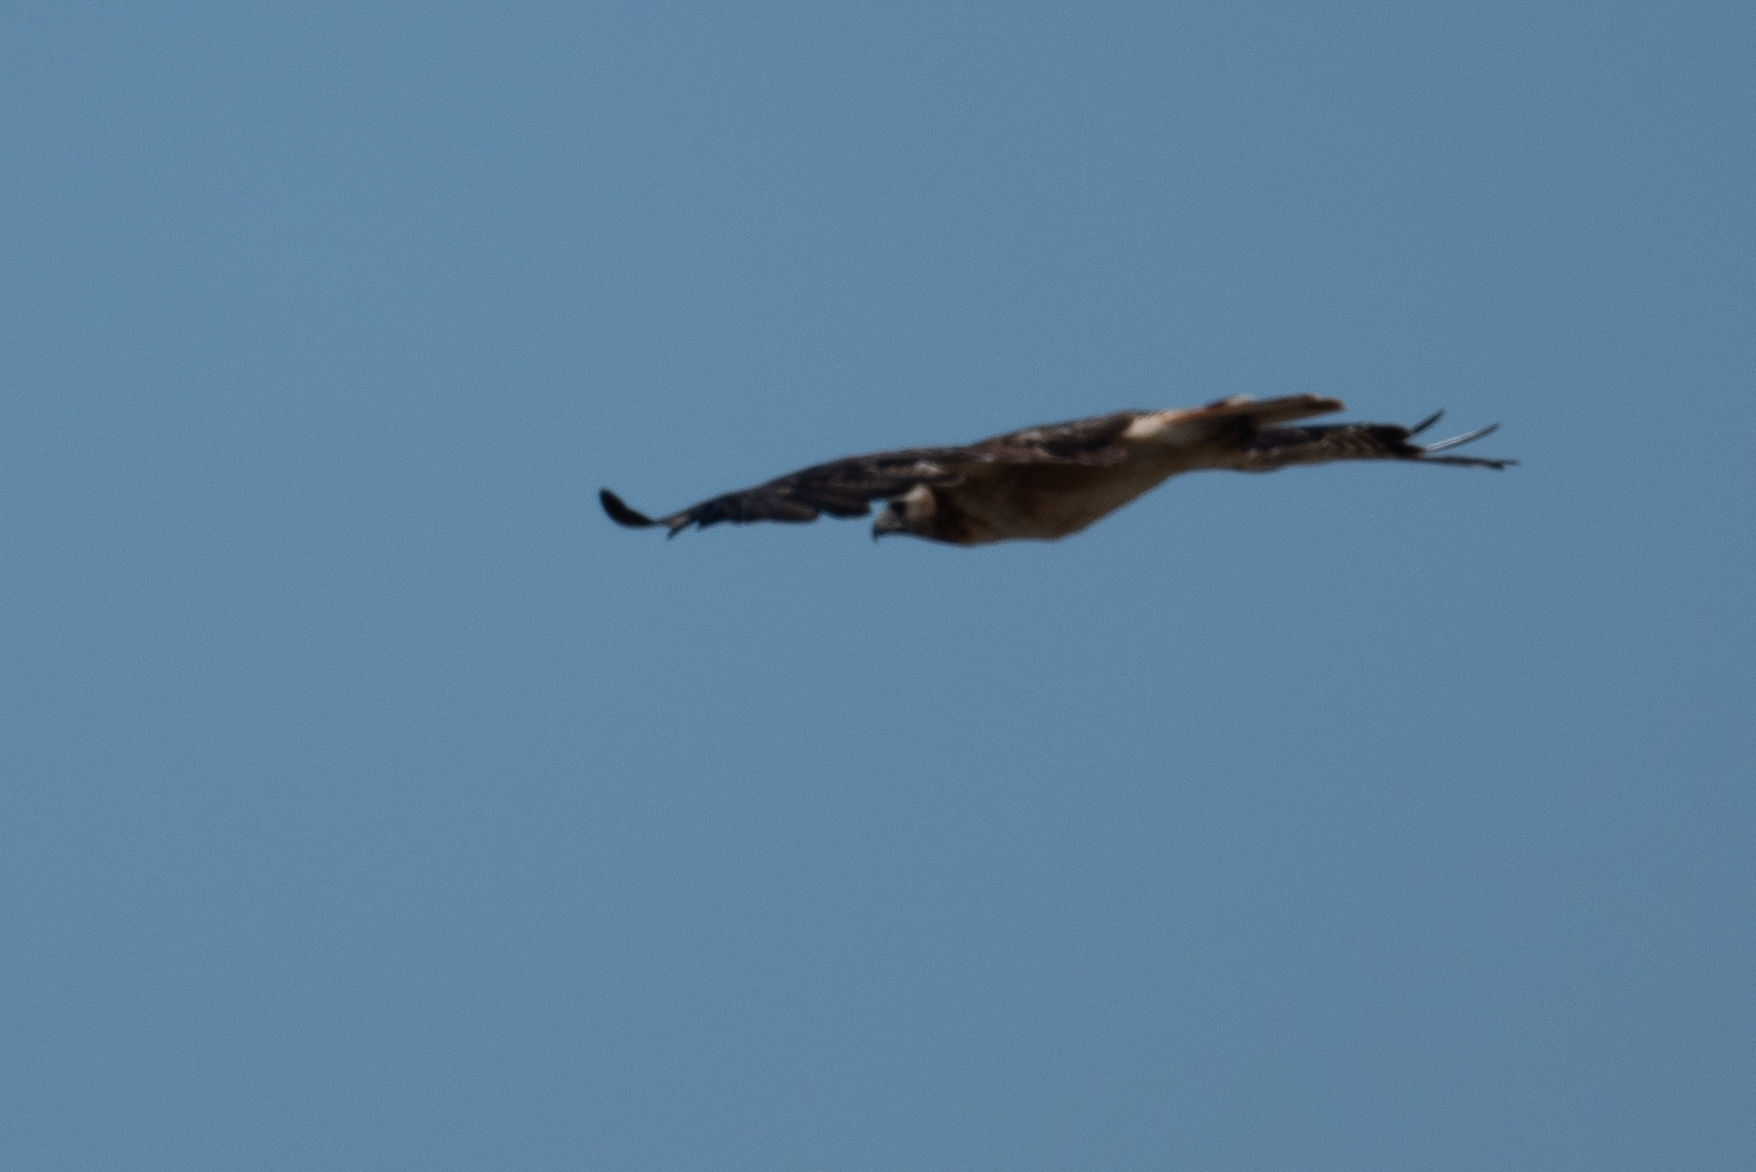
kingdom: Animalia
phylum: Chordata
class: Aves
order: Accipitriformes
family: Accipitridae
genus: Buteo
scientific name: Buteo jamaicensis
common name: Red-tailed hawk
